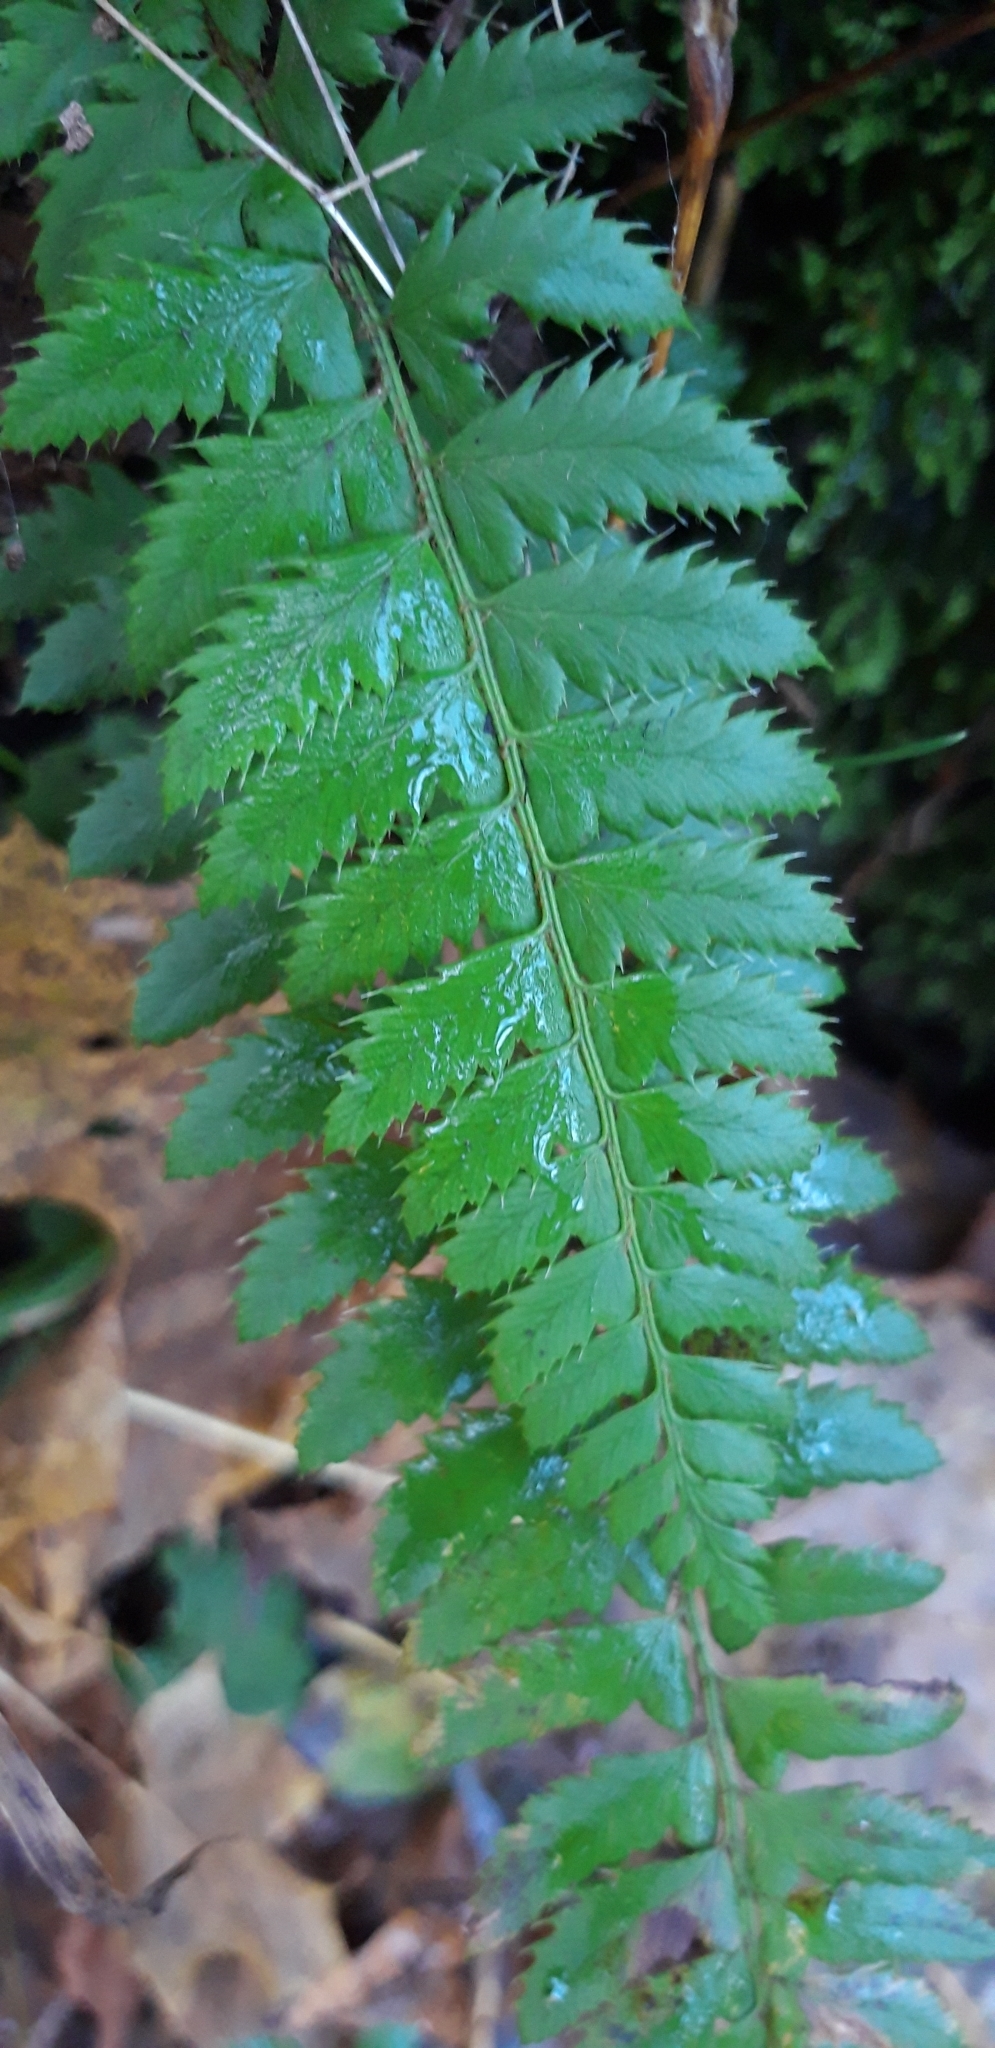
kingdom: Plantae
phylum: Tracheophyta
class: Polypodiopsida
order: Polypodiales
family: Dryopteridaceae
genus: Polystichum
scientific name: Polystichum aculeatum
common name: Hard shield-fern
